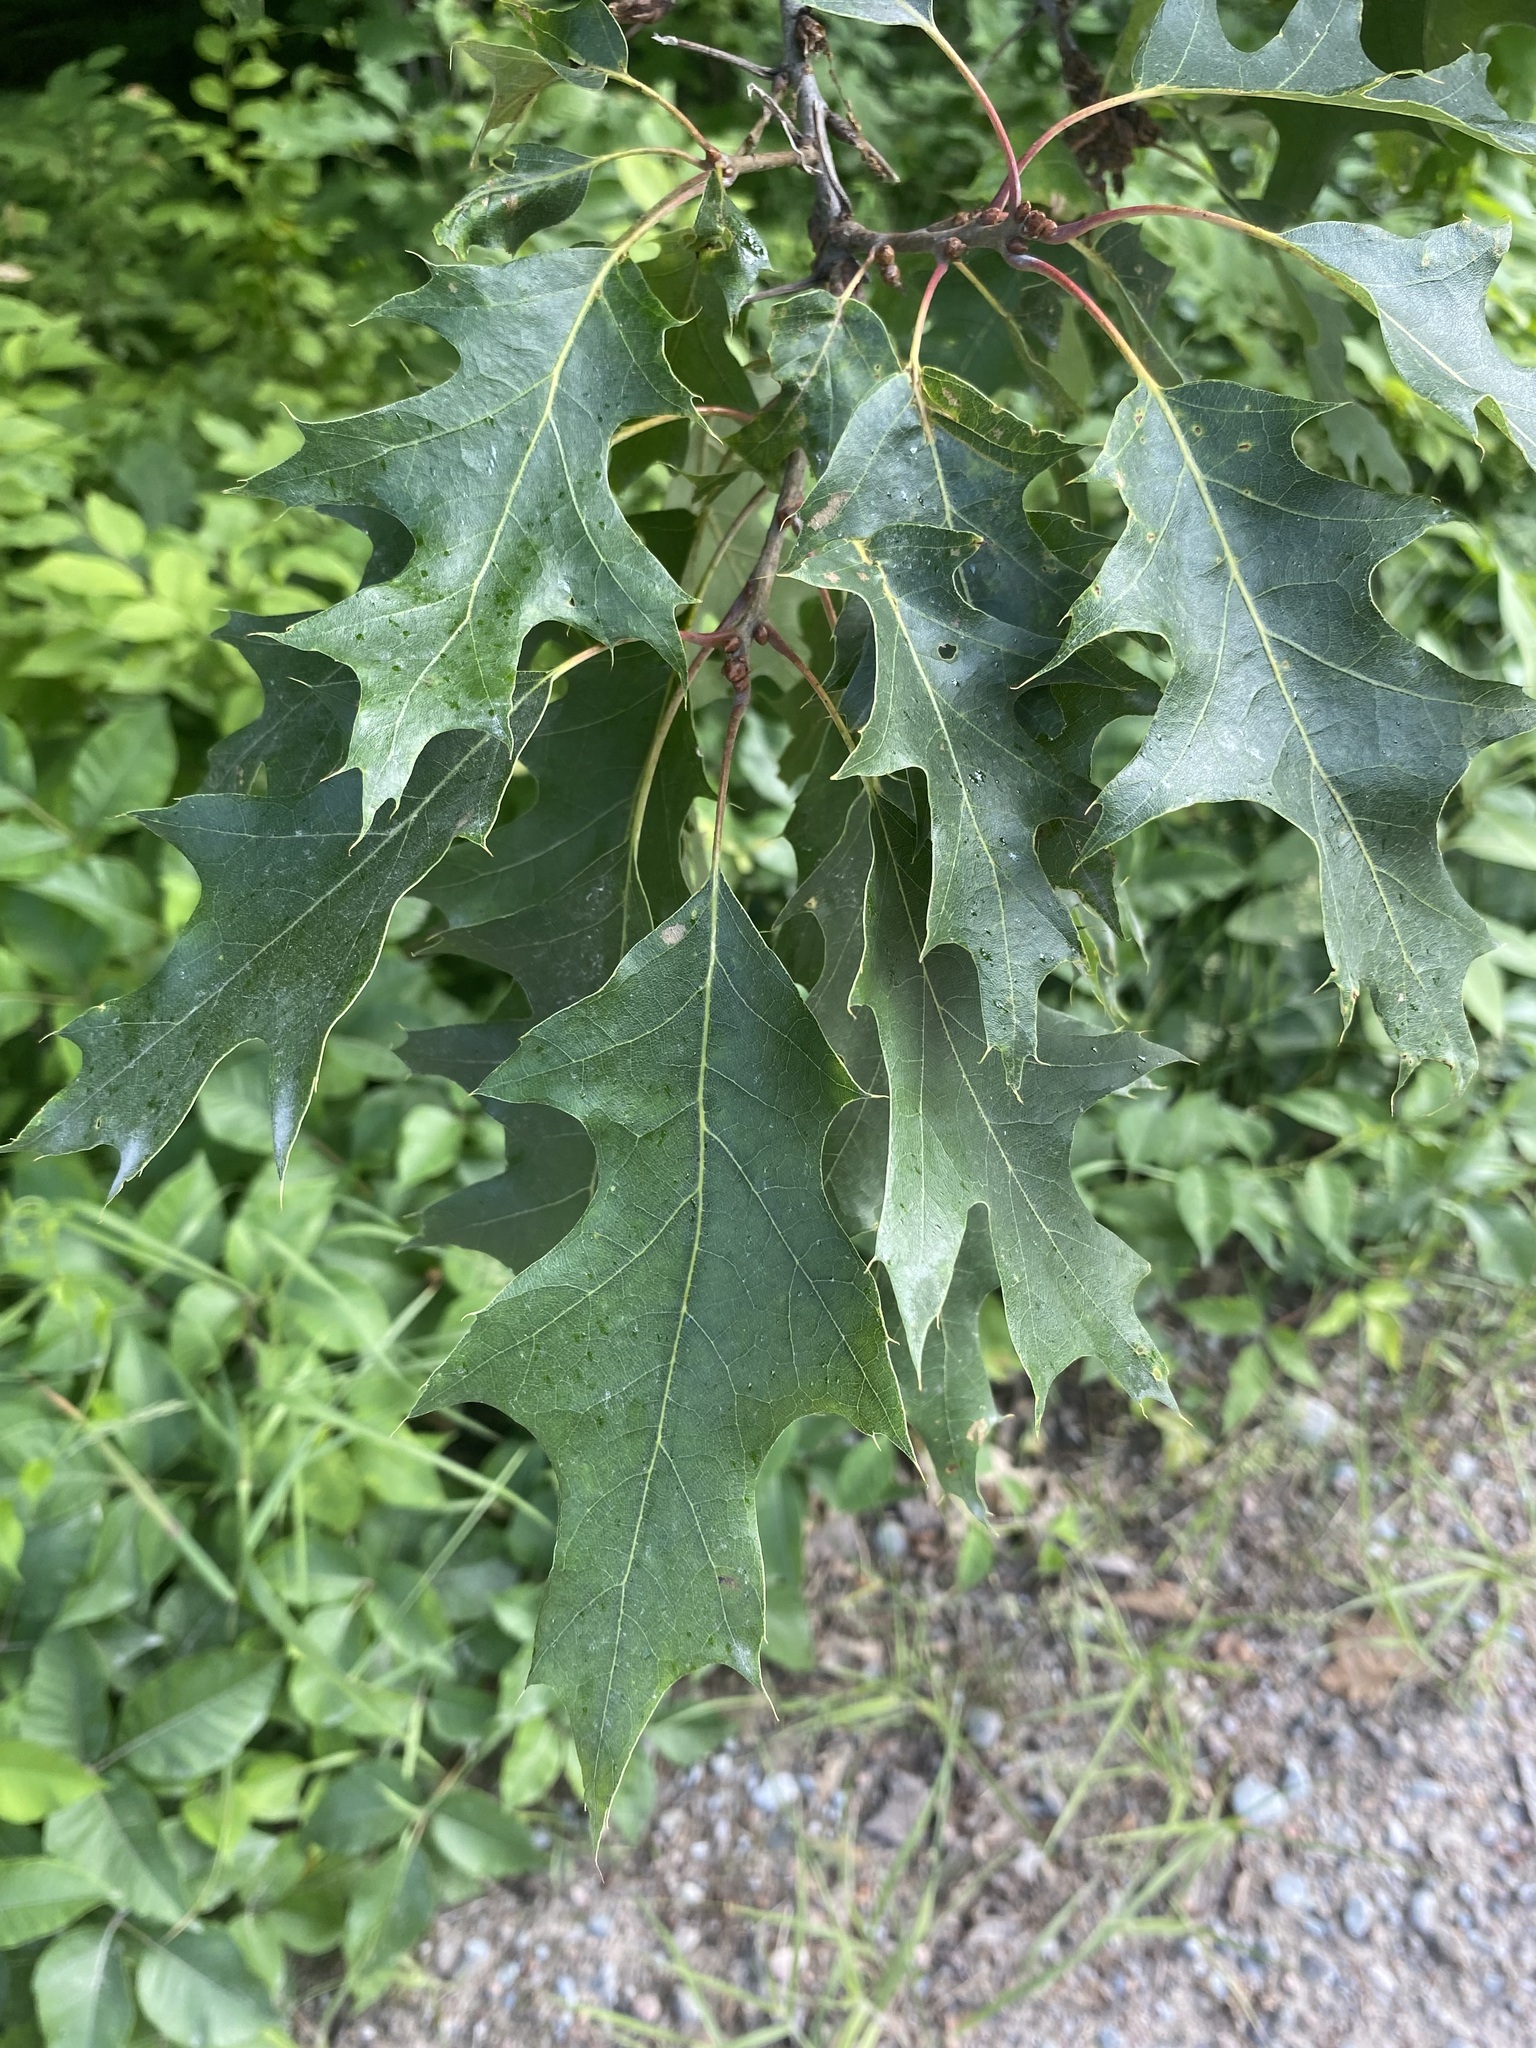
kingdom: Plantae
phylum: Tracheophyta
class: Magnoliopsida
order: Fagales
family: Fagaceae
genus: Quercus
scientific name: Quercus rubra
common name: Red oak
